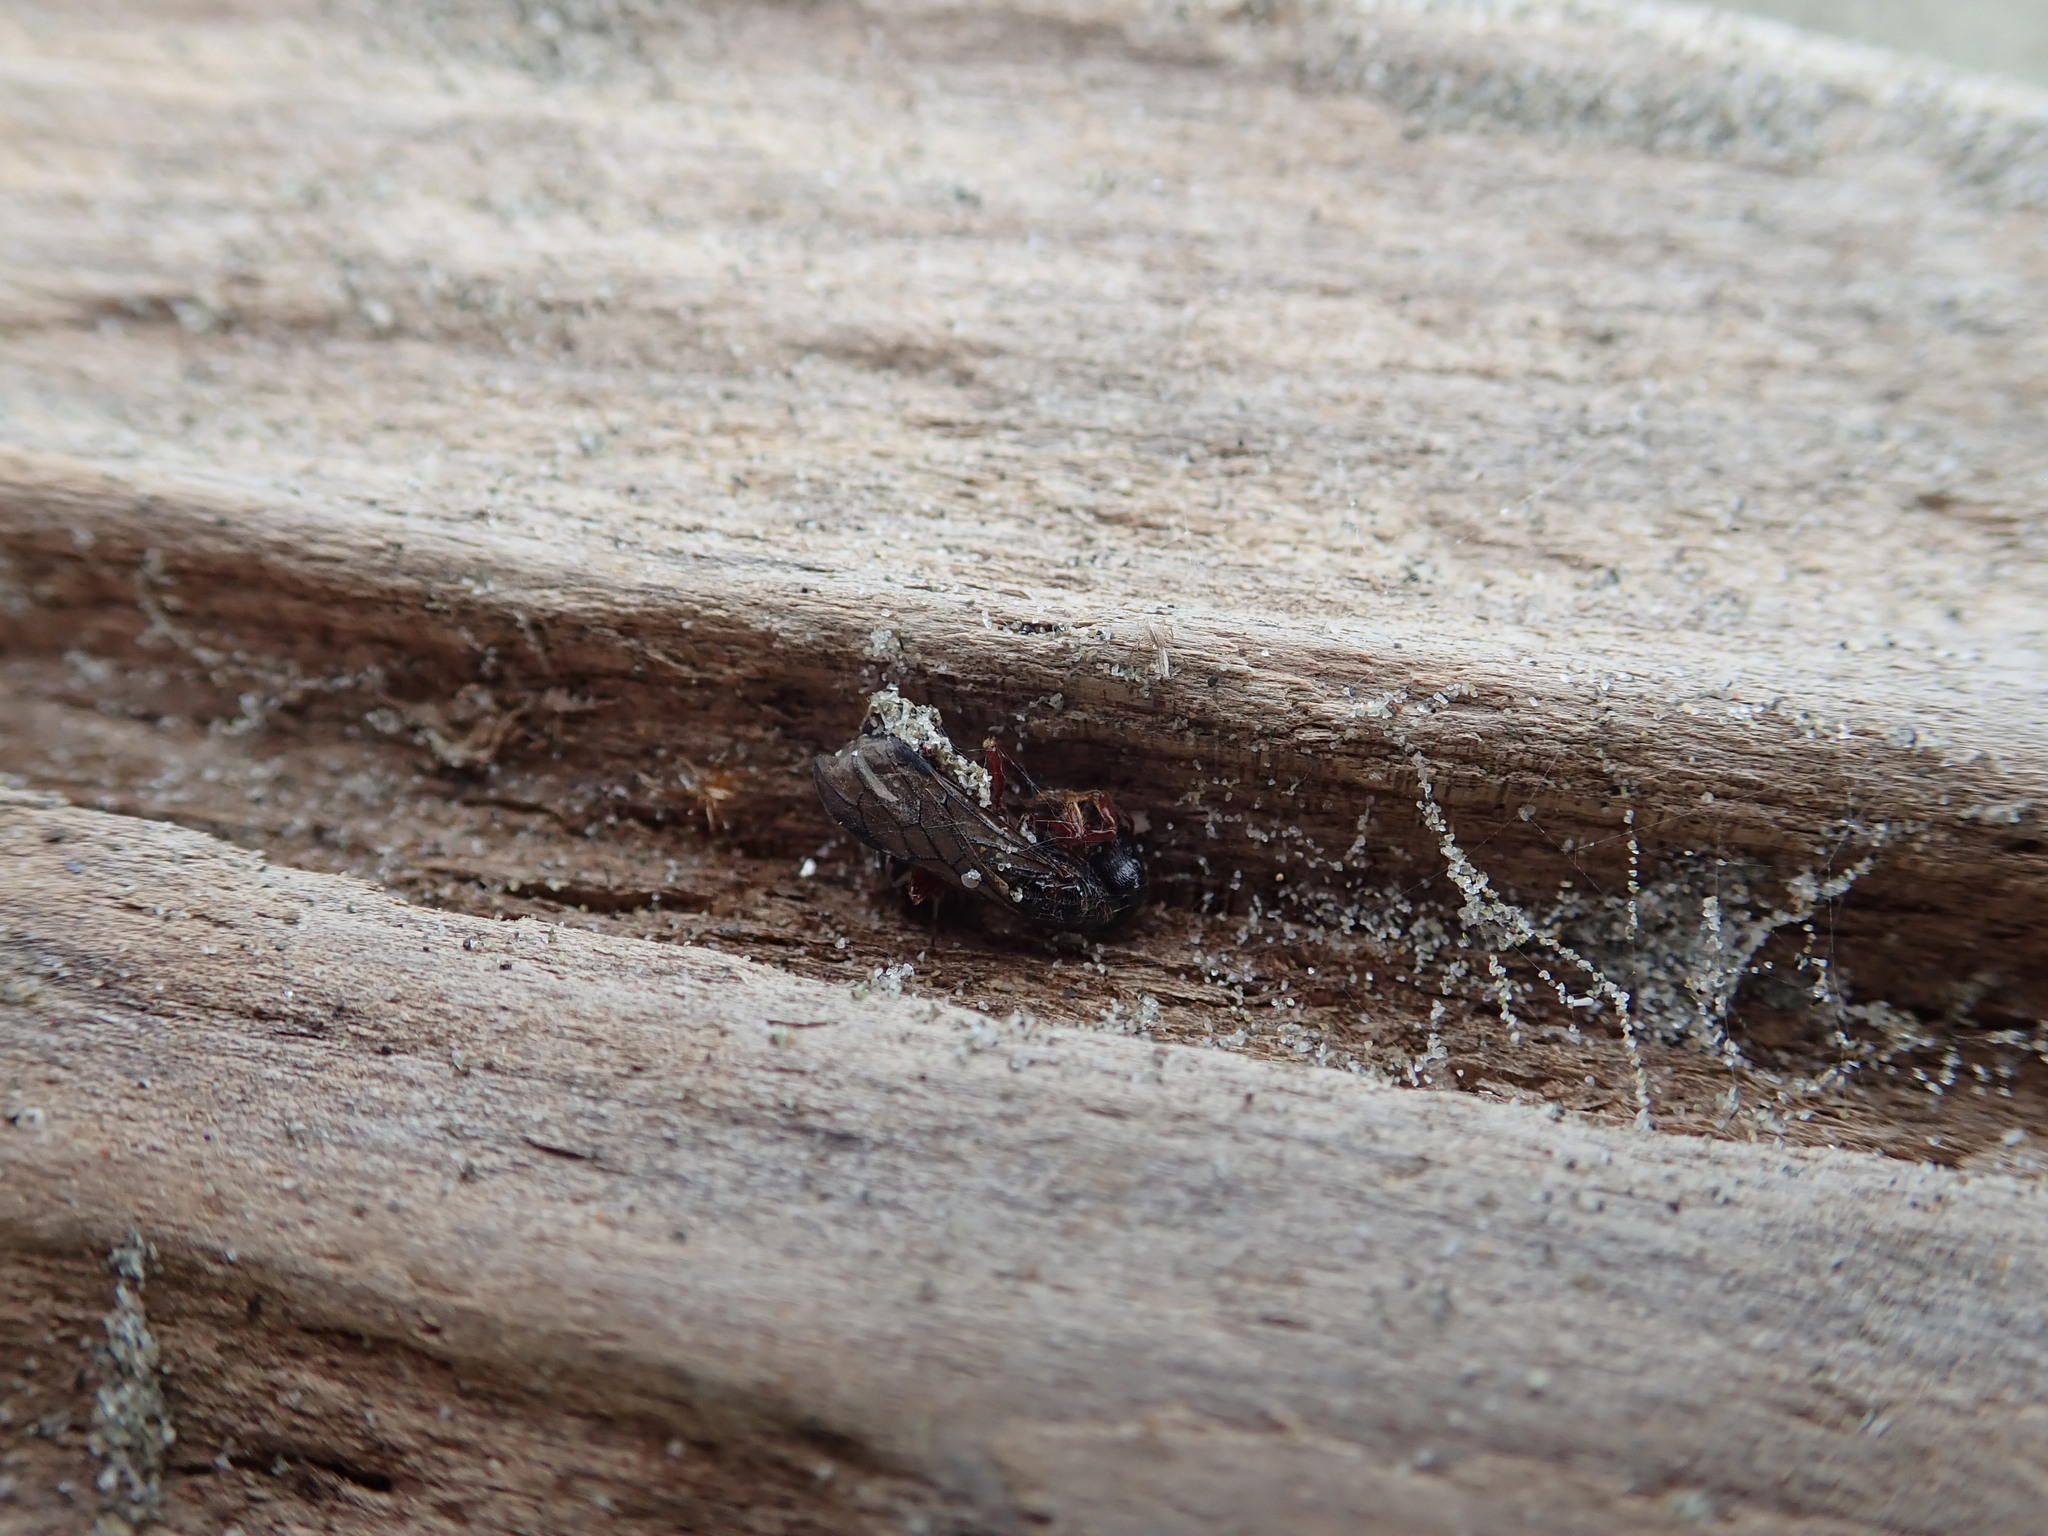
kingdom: Animalia
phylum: Arthropoda
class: Arachnida
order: Araneae
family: Theridiidae
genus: Latrodectus
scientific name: Latrodectus katipo
